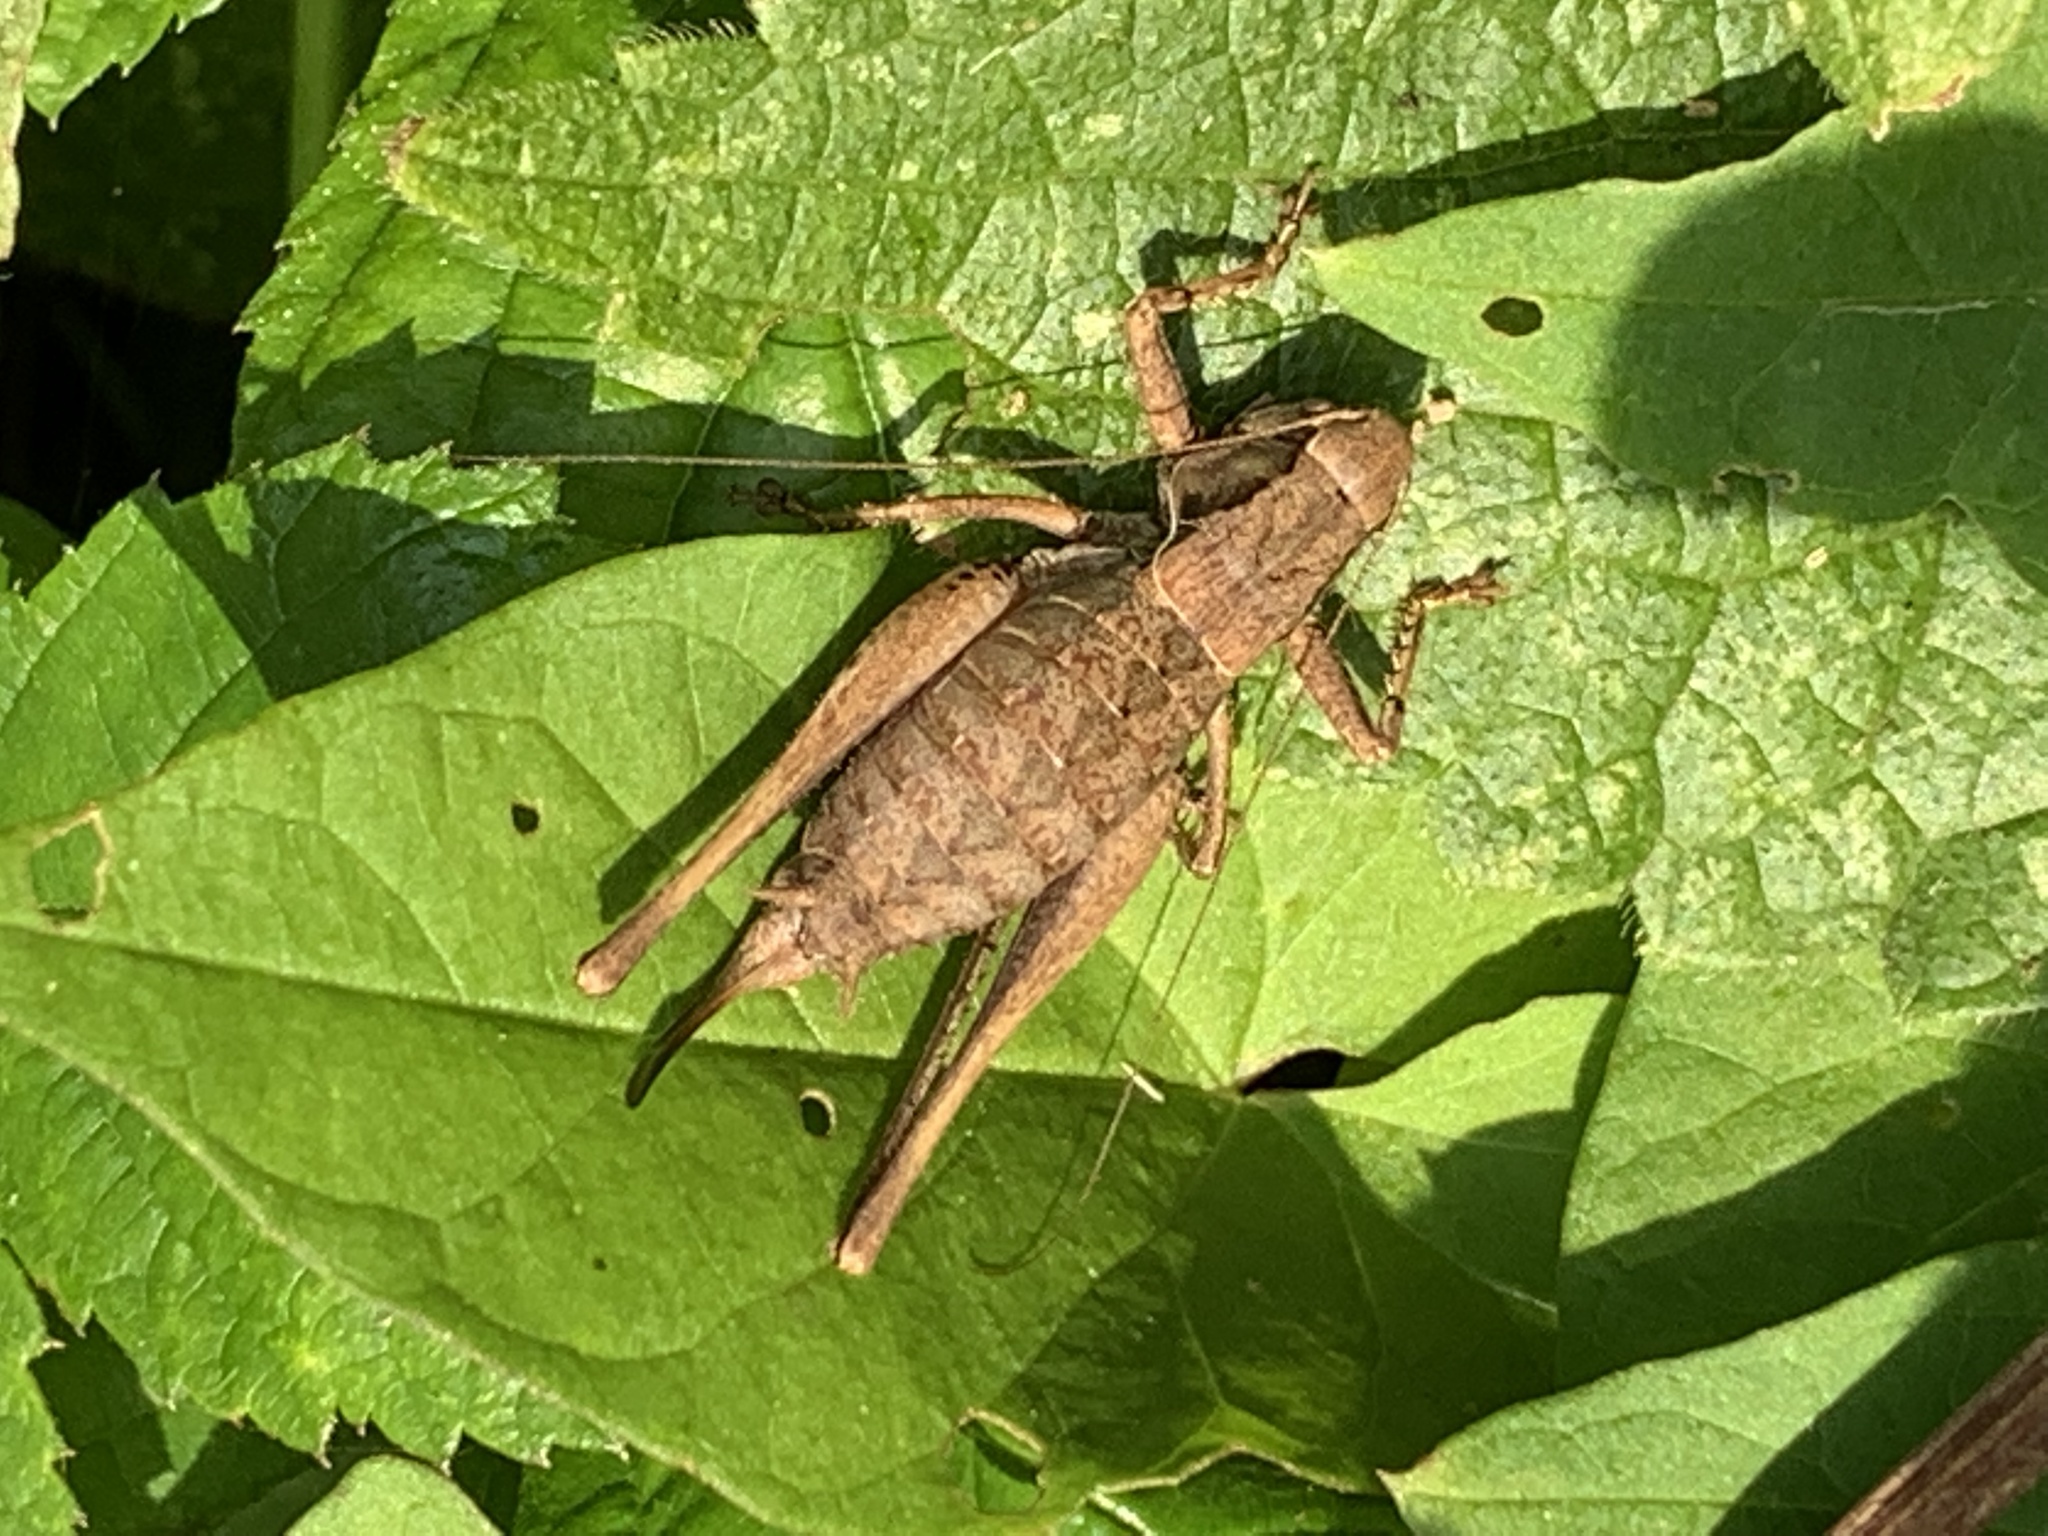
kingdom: Animalia
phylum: Arthropoda
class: Insecta
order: Orthoptera
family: Tettigoniidae
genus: Pholidoptera
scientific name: Pholidoptera griseoaptera
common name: Dark bush-cricket
